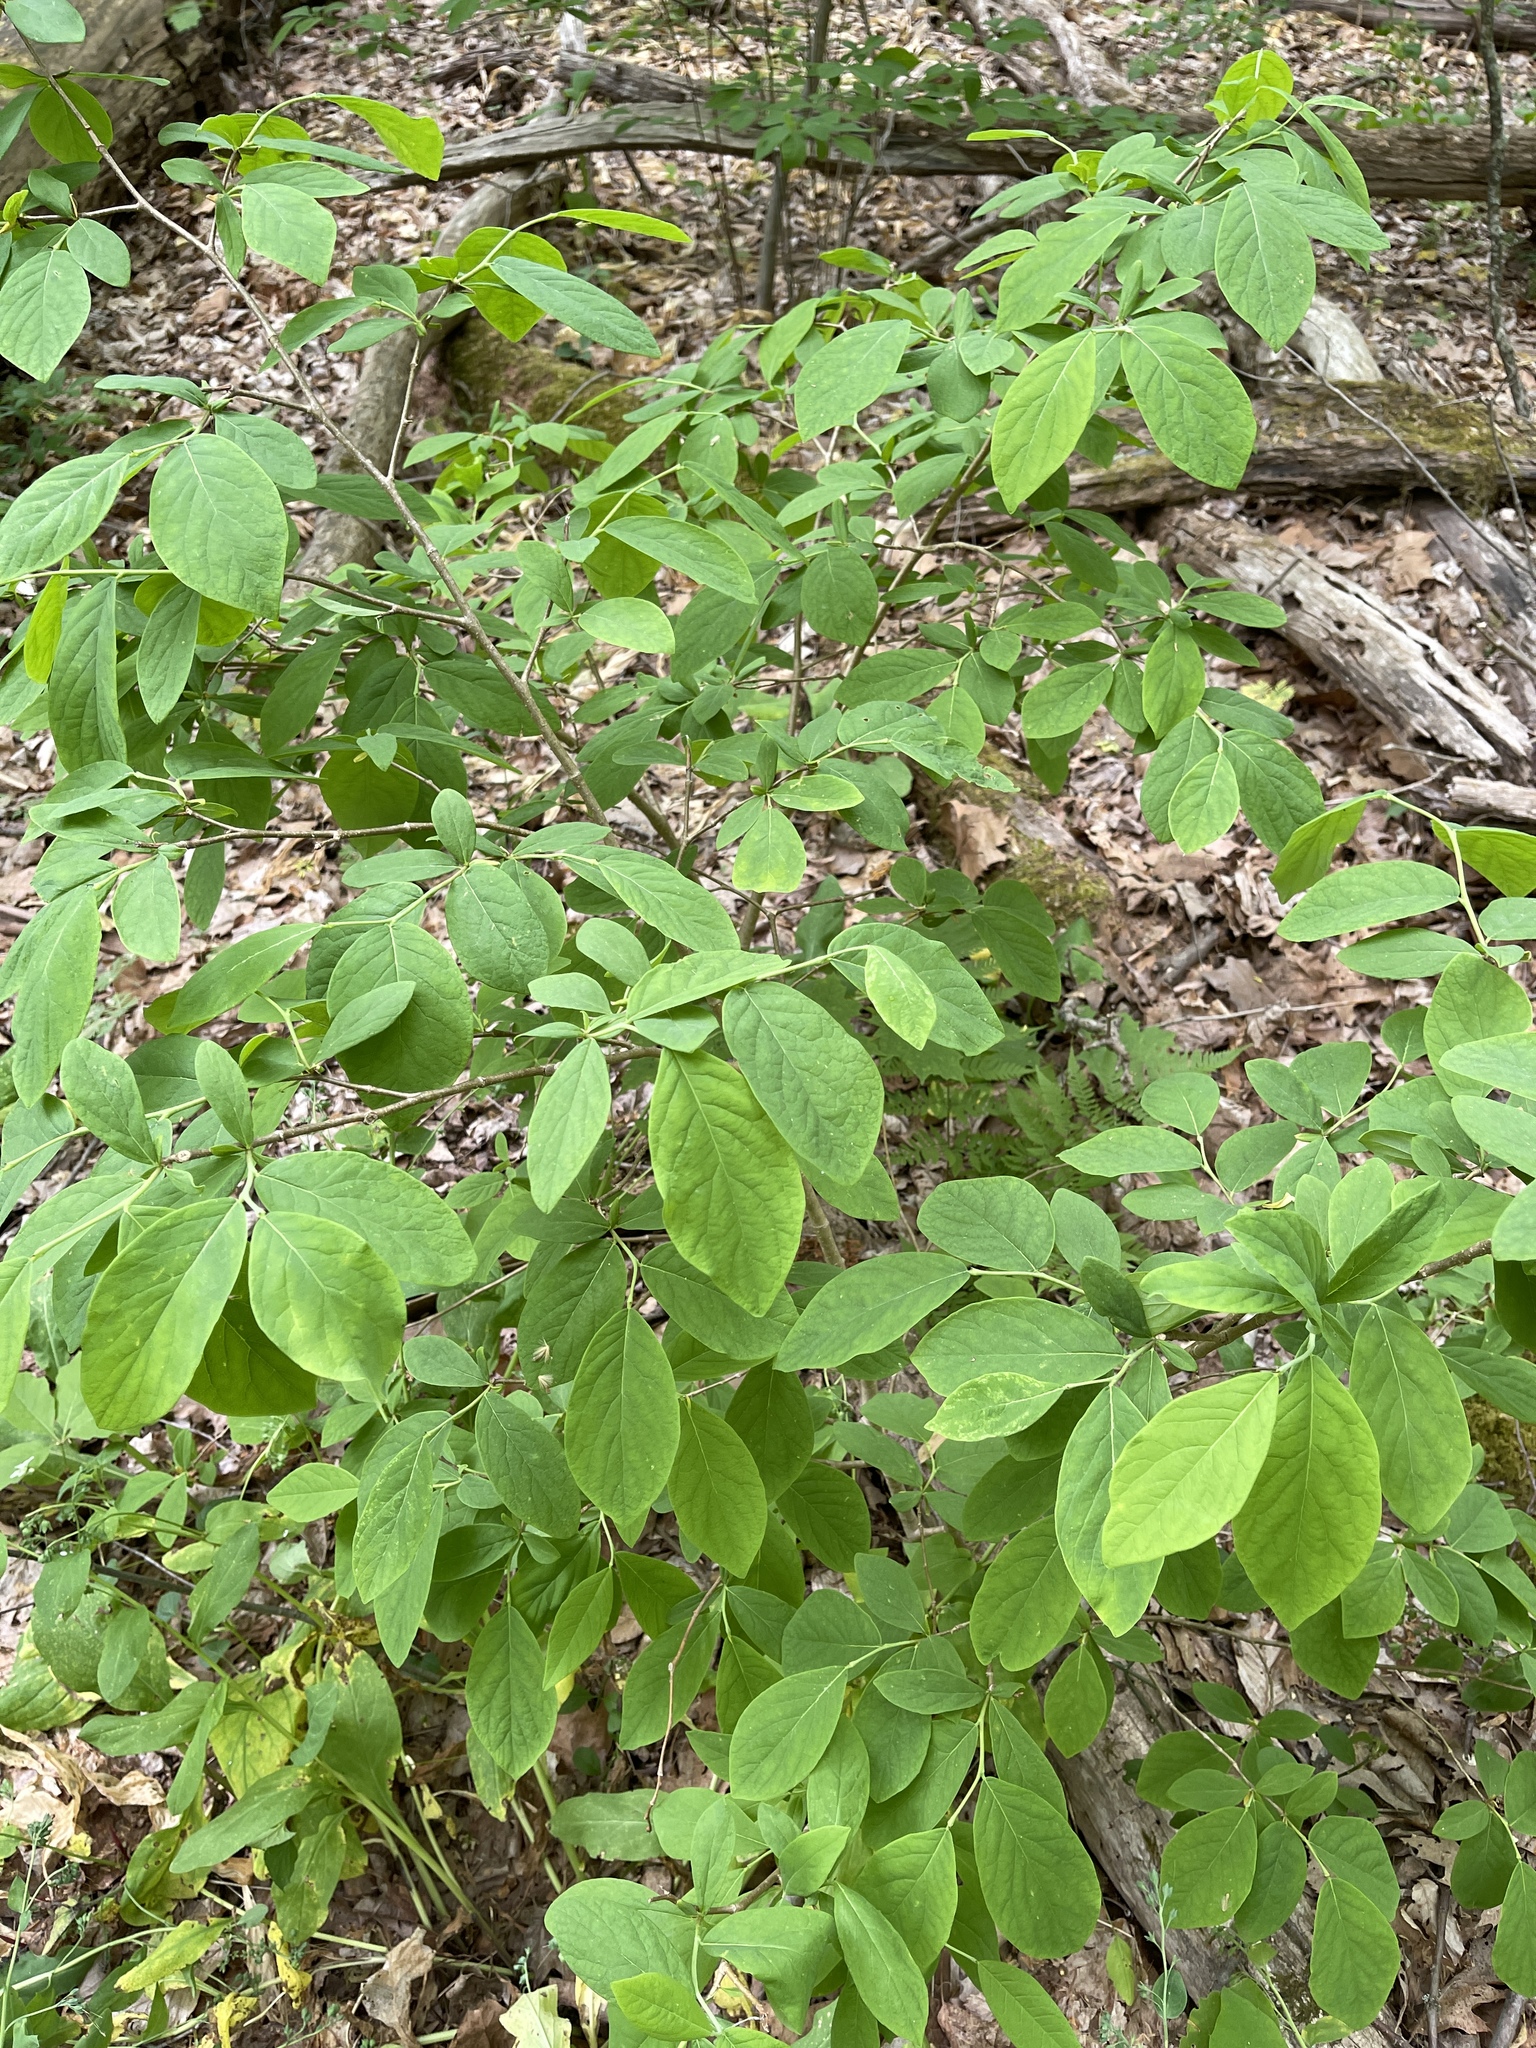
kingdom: Plantae
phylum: Tracheophyta
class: Magnoliopsida
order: Malvales
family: Thymelaeaceae
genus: Dirca
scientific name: Dirca palustris
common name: Leatherwood
